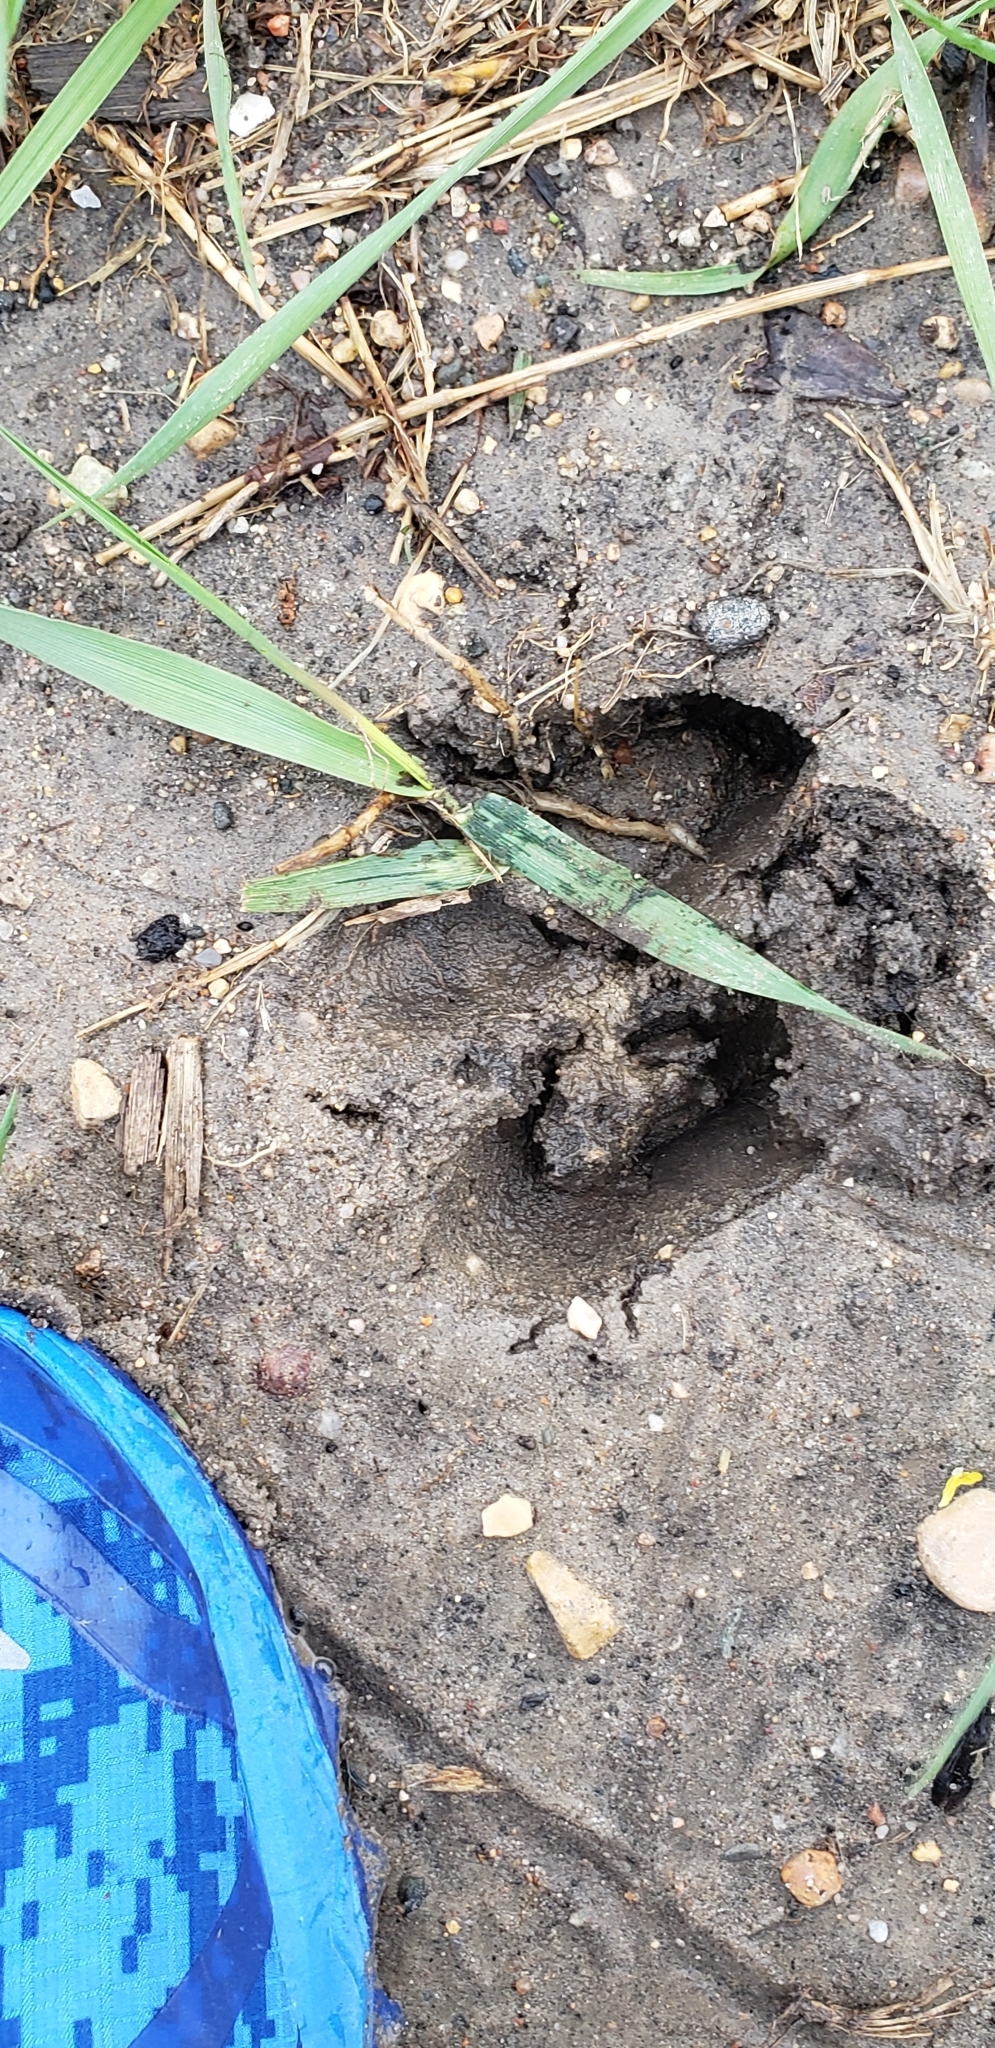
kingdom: Animalia
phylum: Chordata
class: Mammalia
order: Artiodactyla
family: Cervidae
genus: Odocoileus
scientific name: Odocoileus virginianus
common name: White-tailed deer
